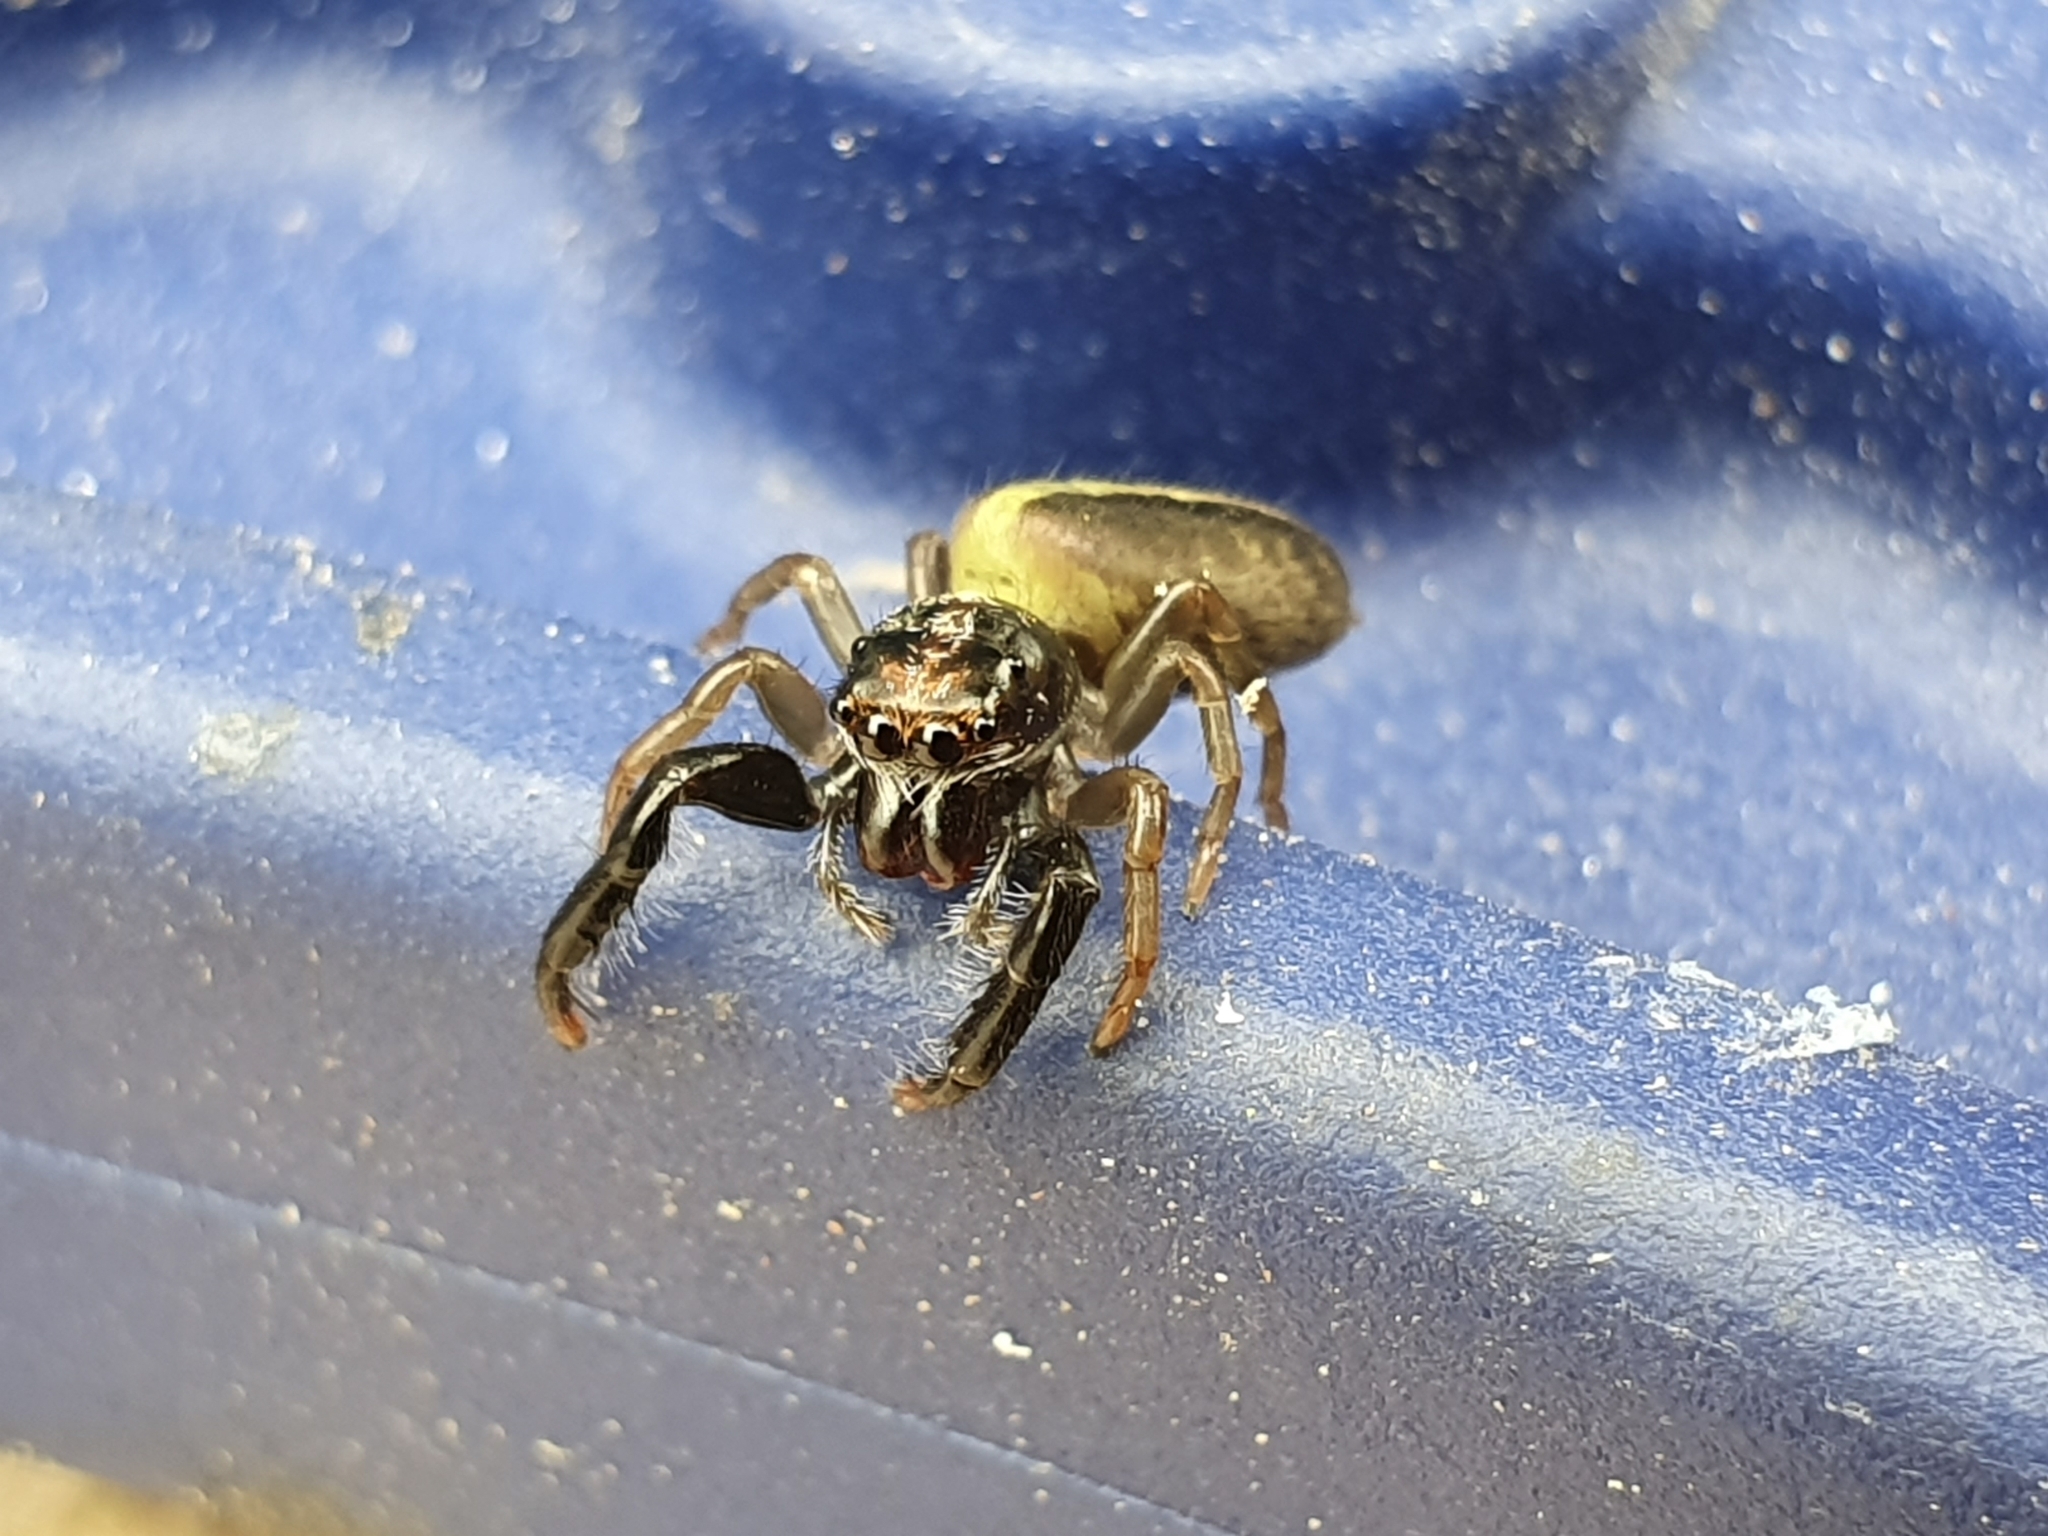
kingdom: Animalia
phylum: Arthropoda
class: Arachnida
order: Araneae
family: Salticidae
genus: Trite
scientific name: Trite planiceps
